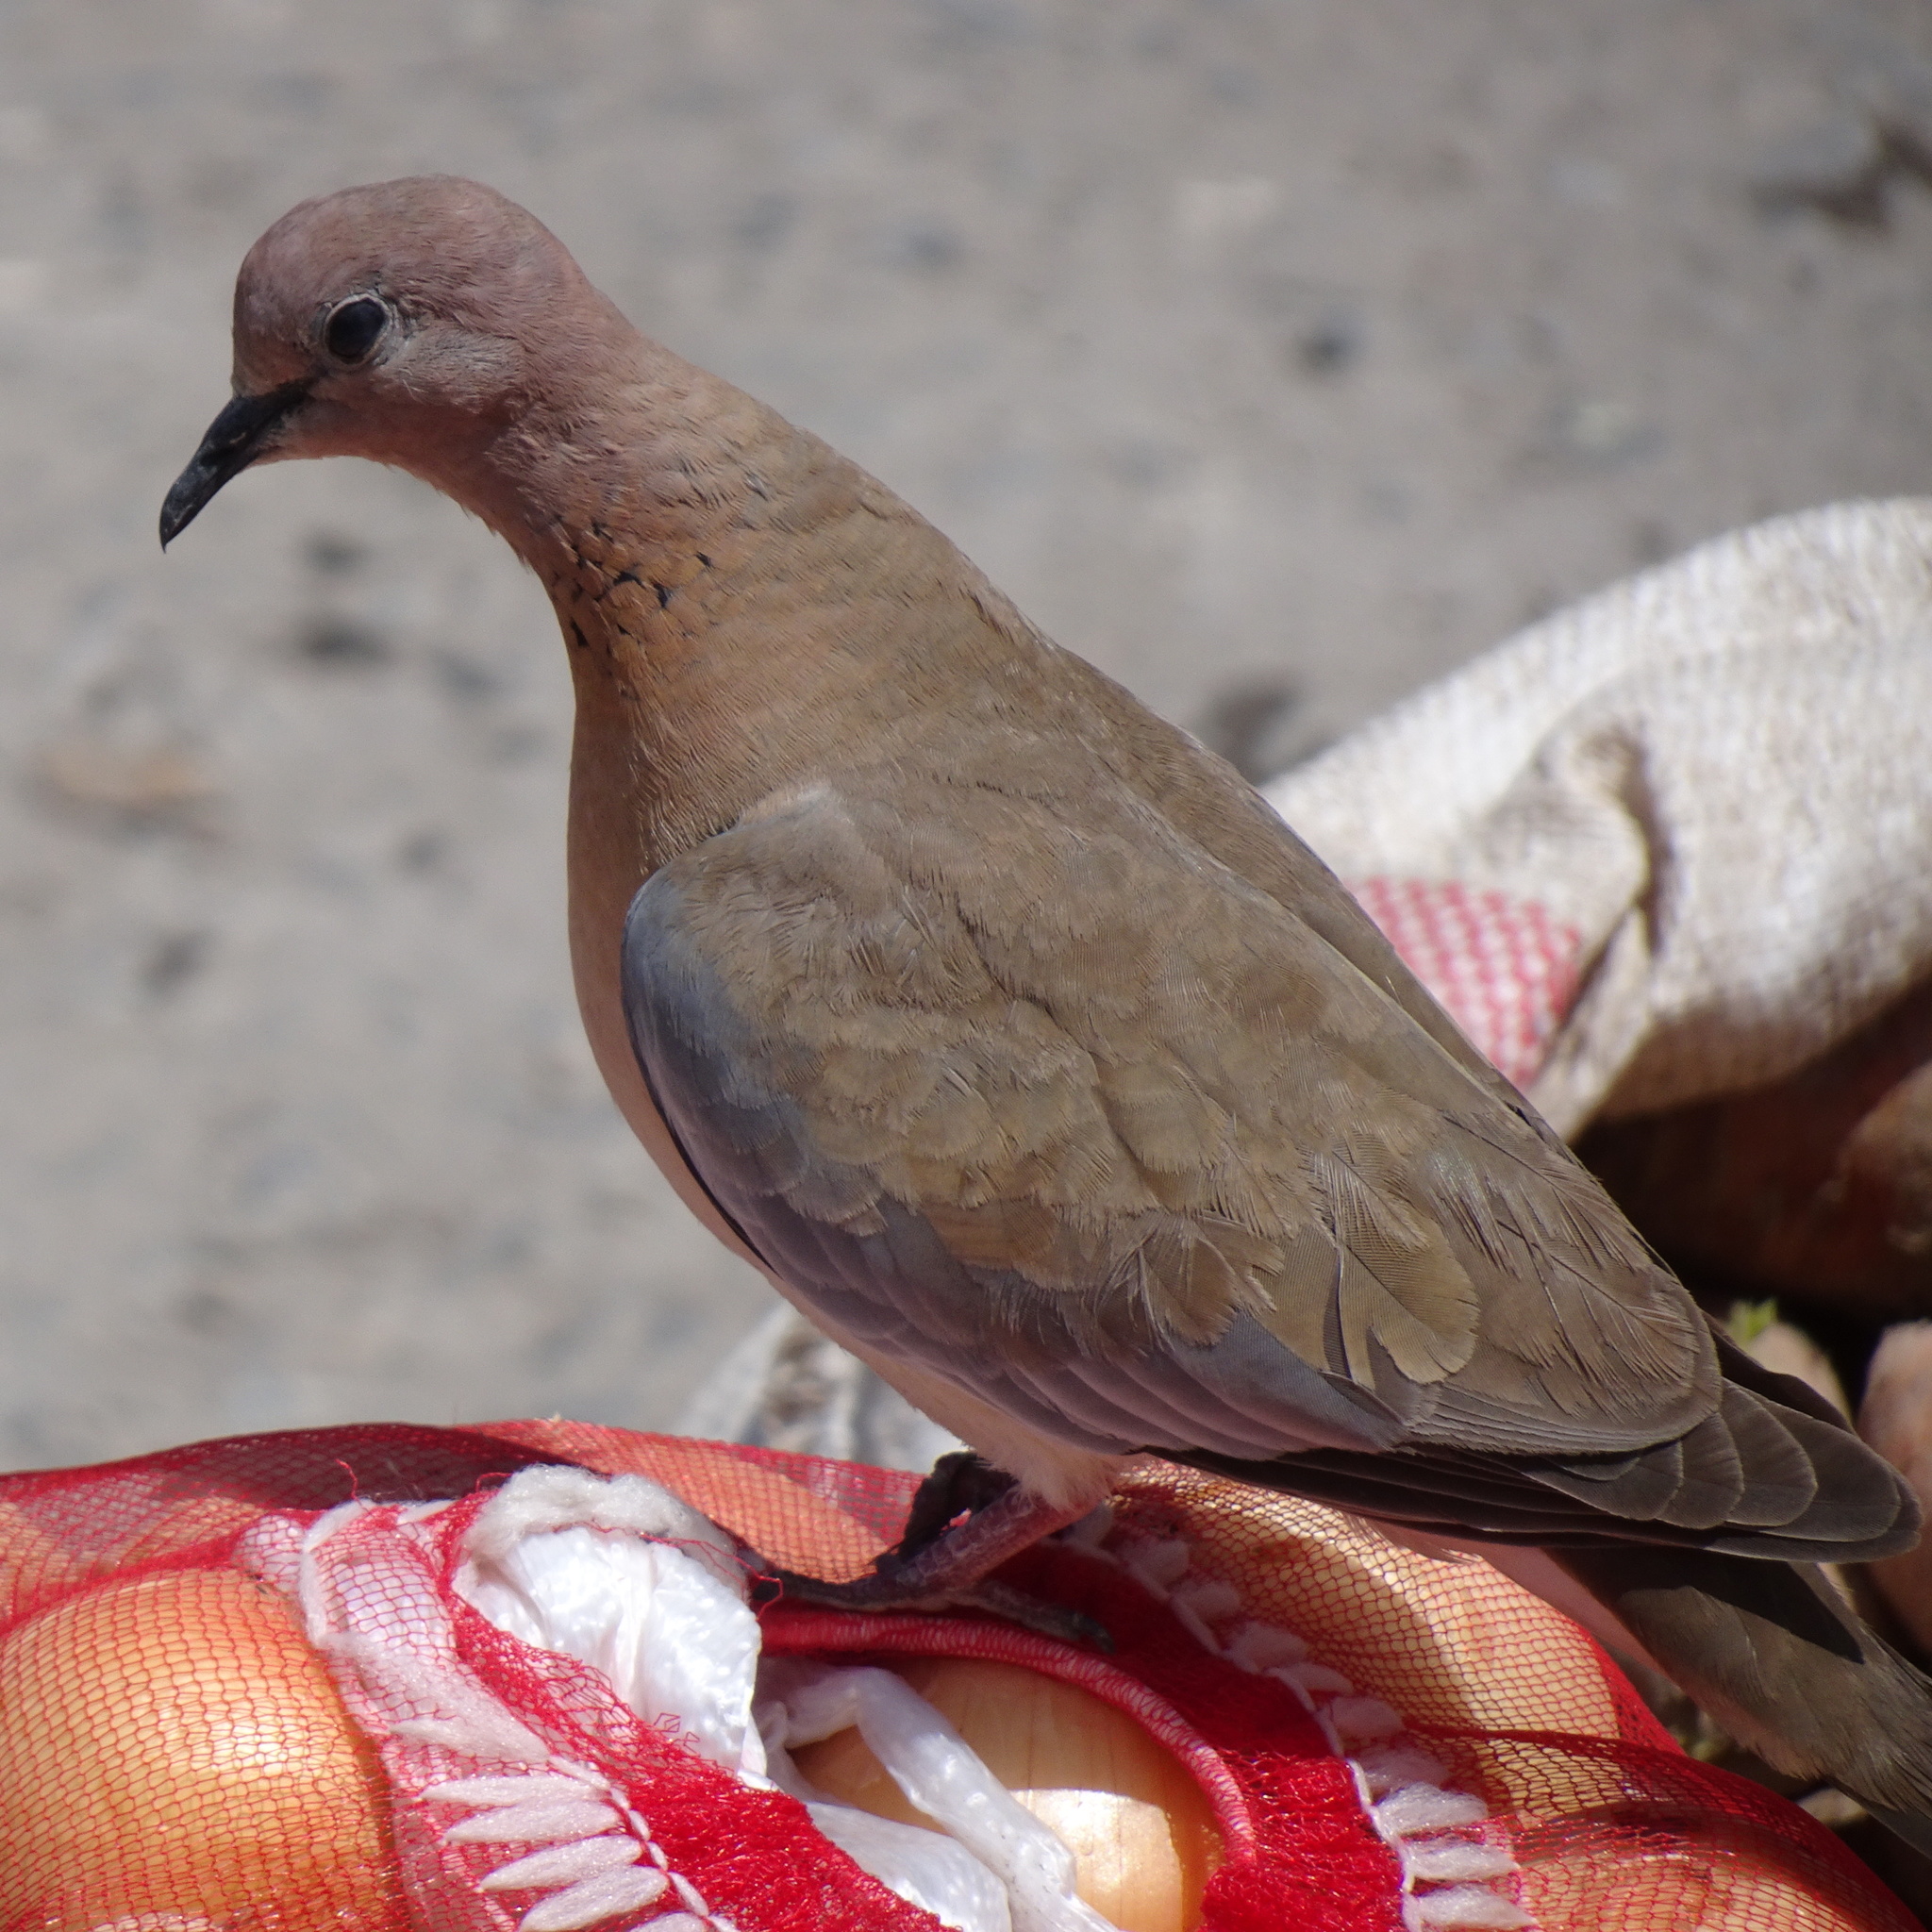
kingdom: Animalia
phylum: Chordata
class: Aves
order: Columbiformes
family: Columbidae
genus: Spilopelia
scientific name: Spilopelia senegalensis
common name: Laughing dove
